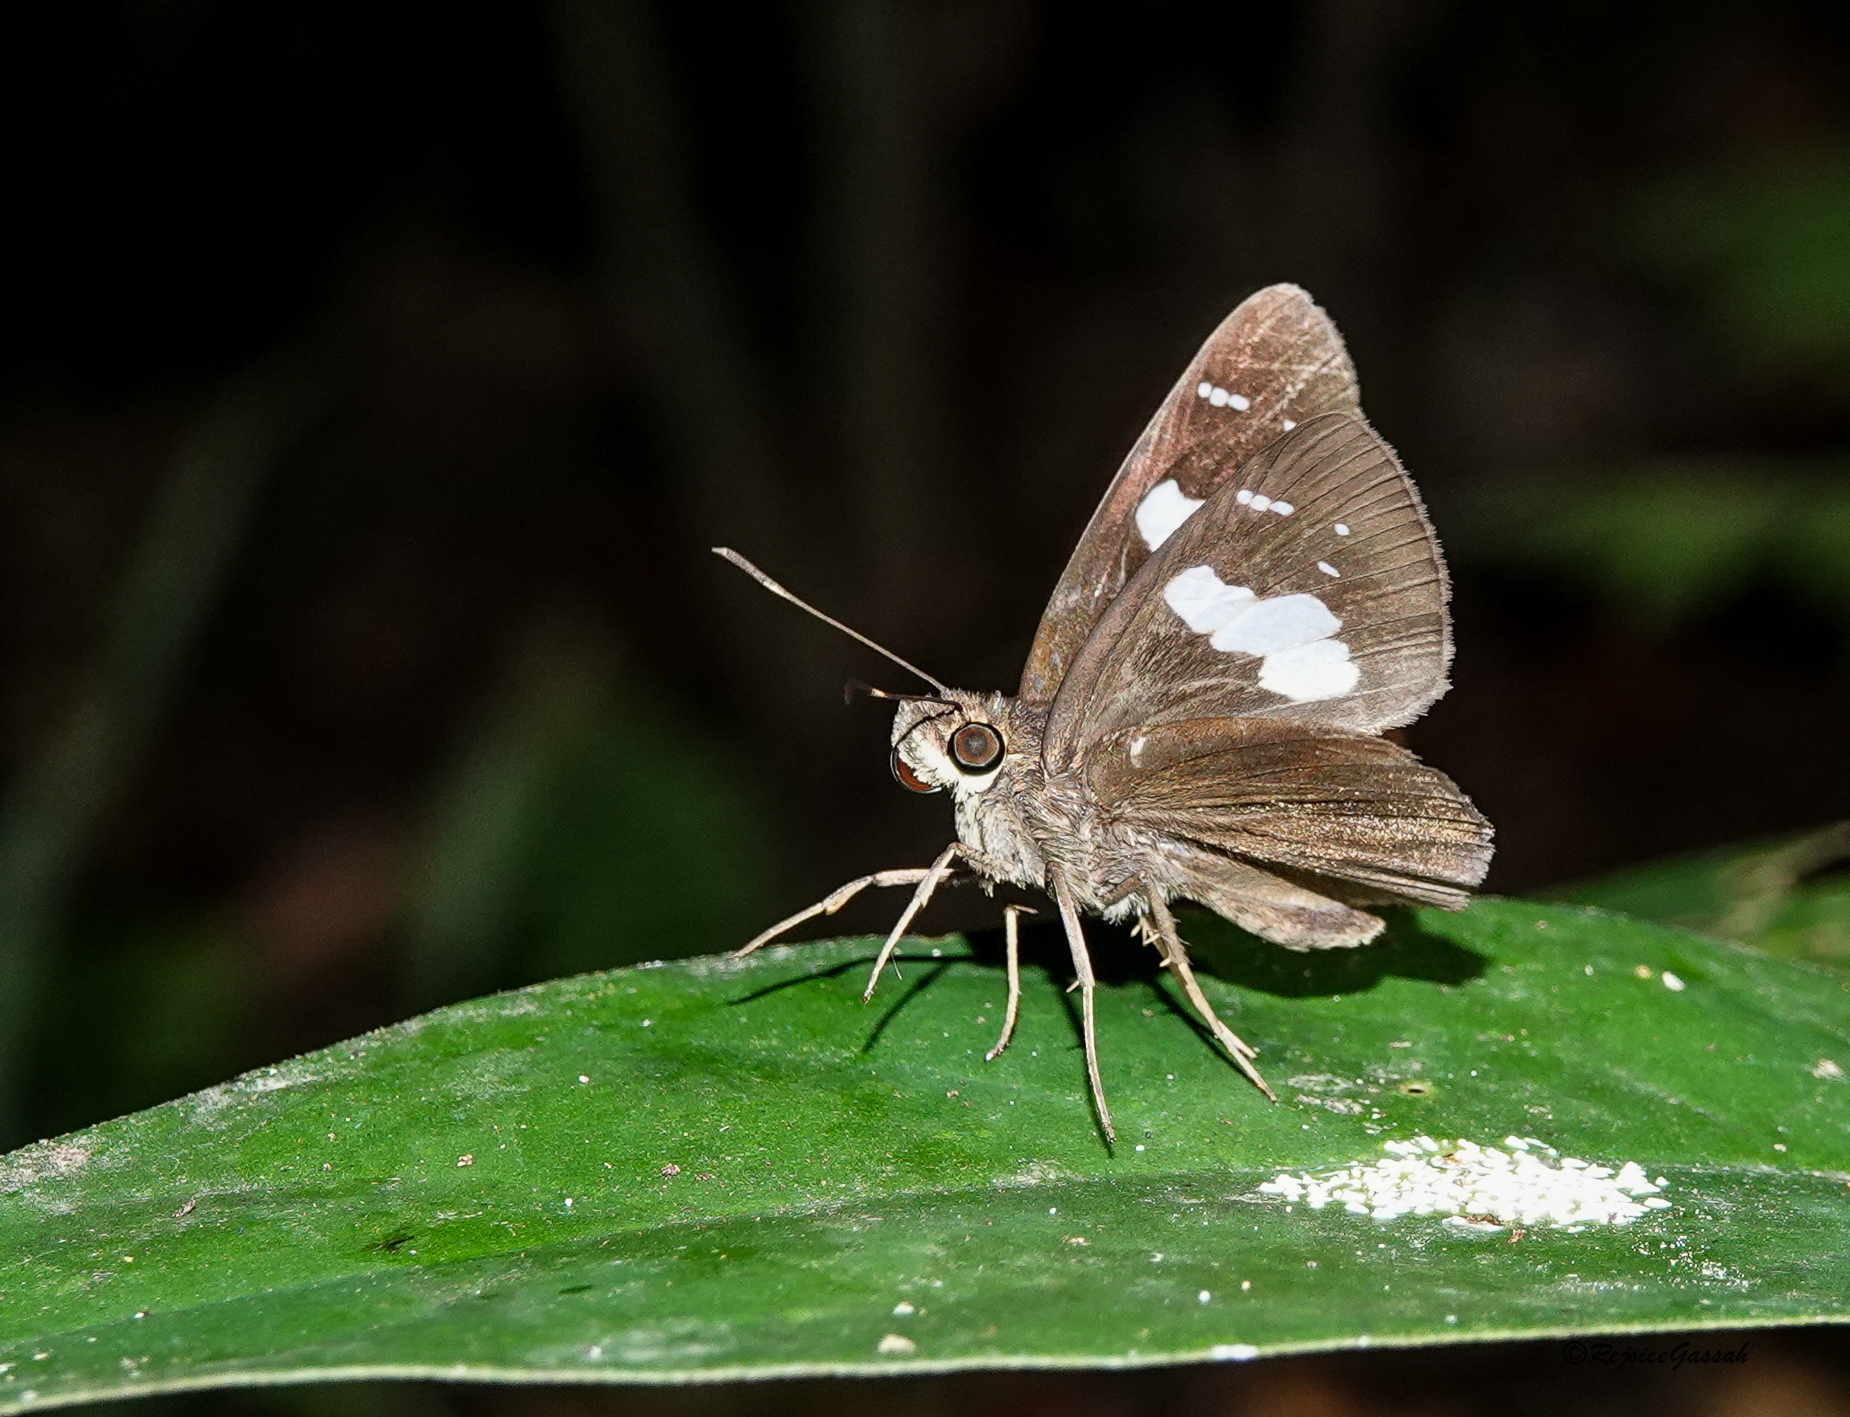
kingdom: Animalia
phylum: Arthropoda
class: Insecta
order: Lepidoptera
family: Hesperiidae
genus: Notocrypta
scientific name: Notocrypta curvifascia
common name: Restricted demon
